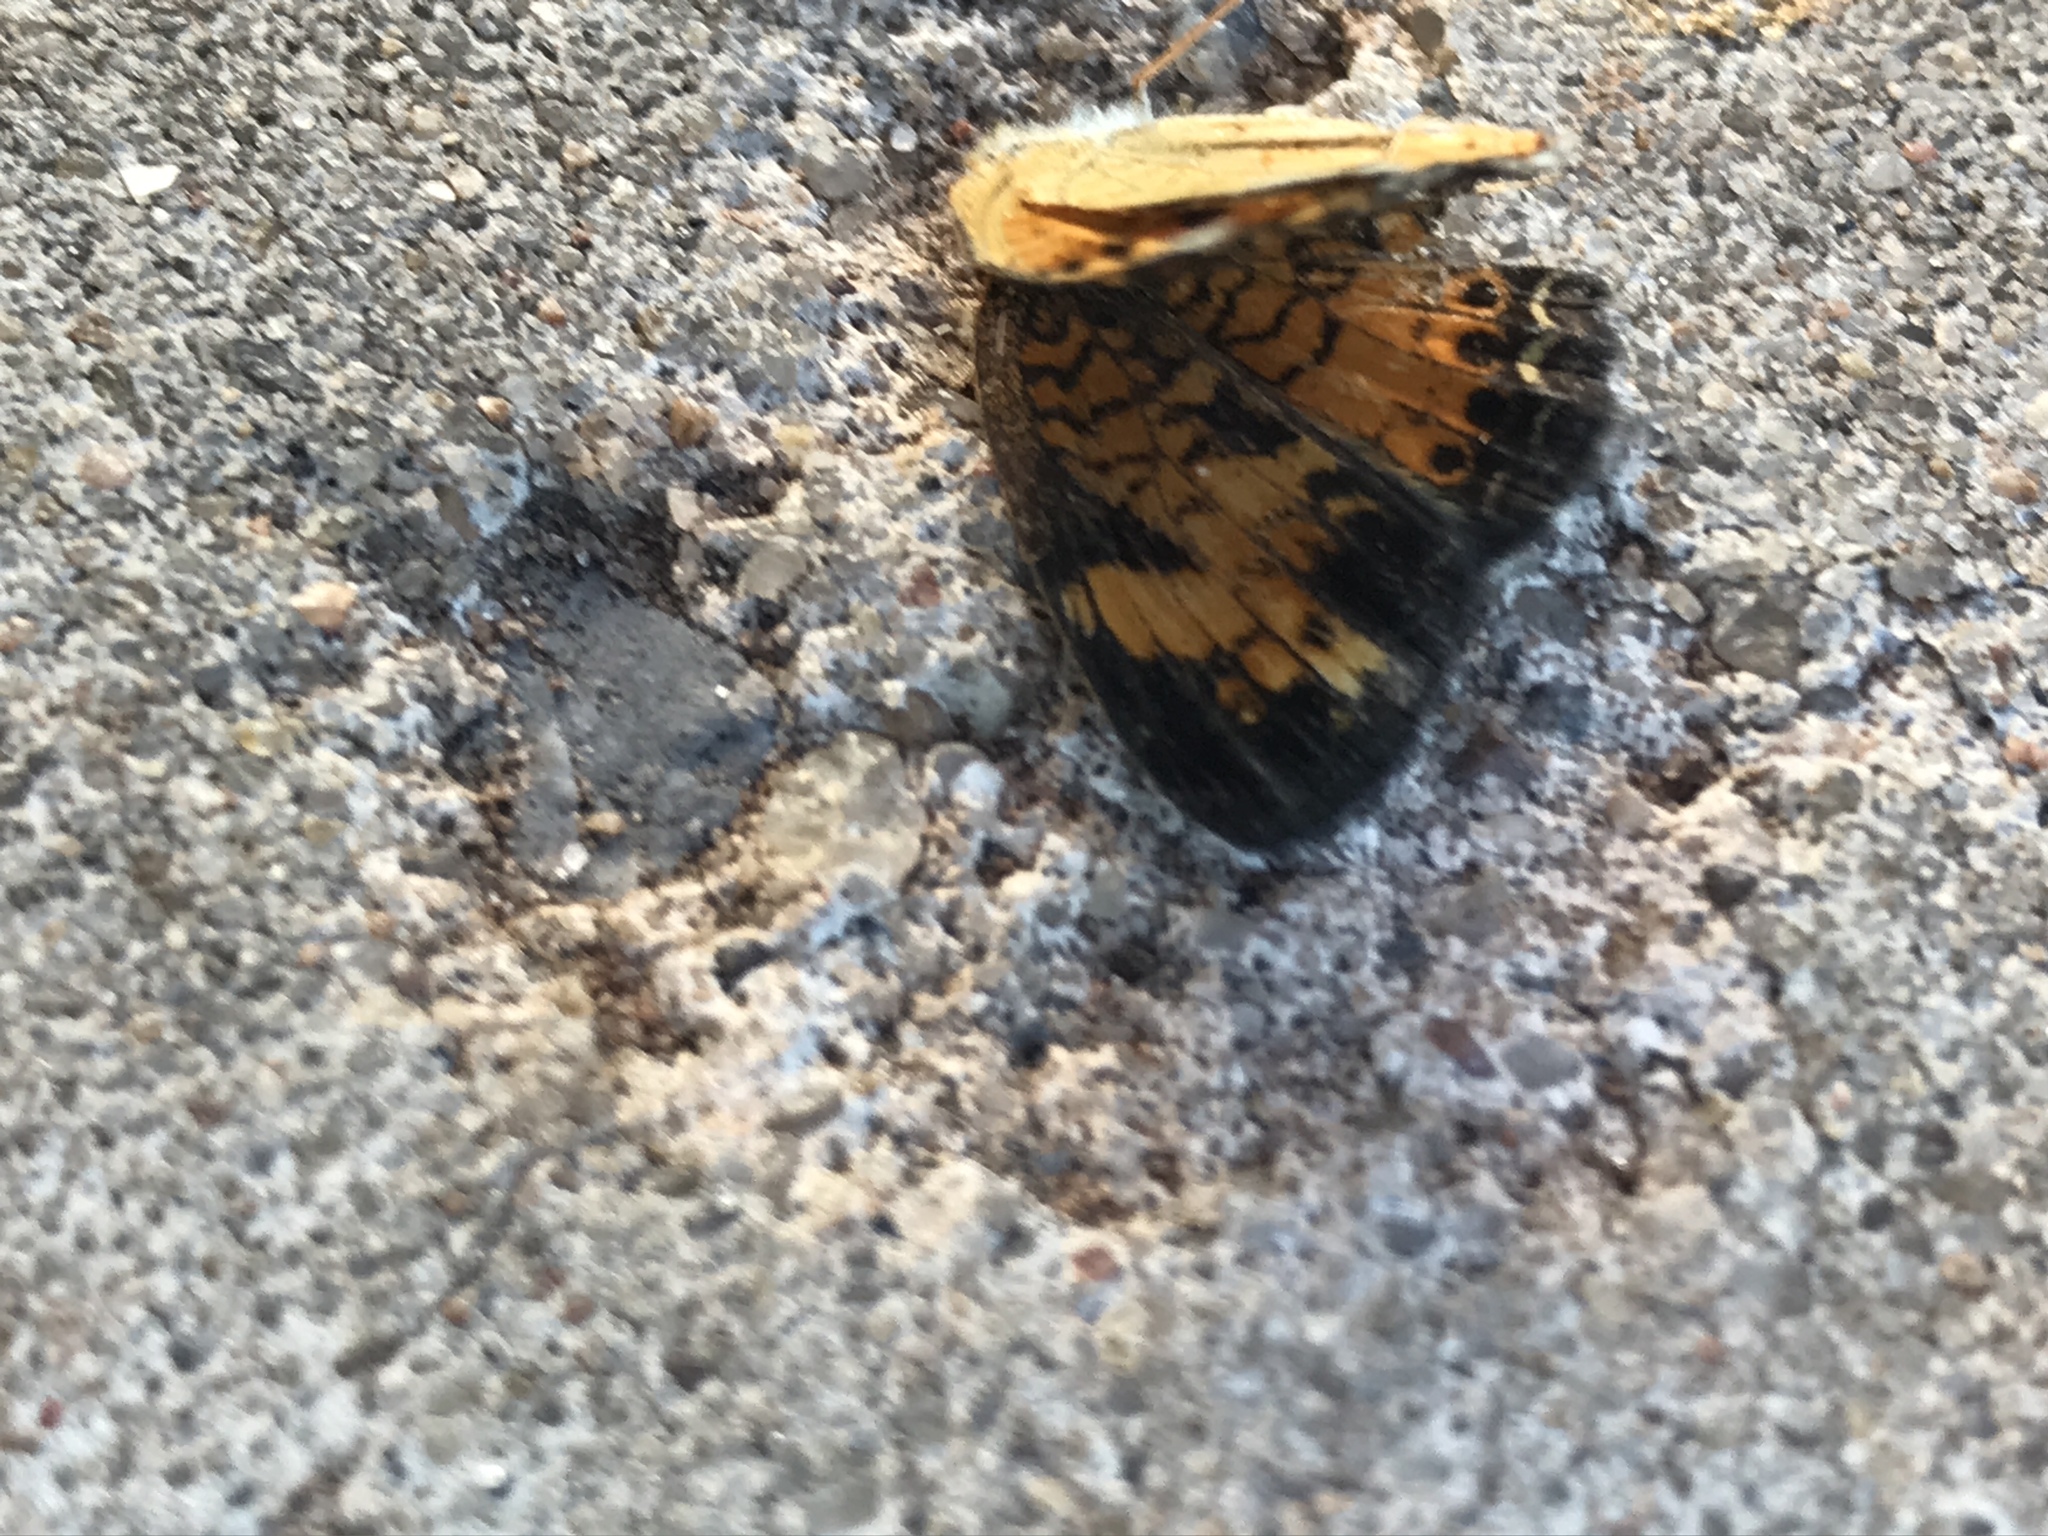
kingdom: Animalia
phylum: Arthropoda
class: Insecta
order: Lepidoptera
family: Nymphalidae
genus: Phyciodes
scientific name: Phyciodes tharos
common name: Pearl crescent
